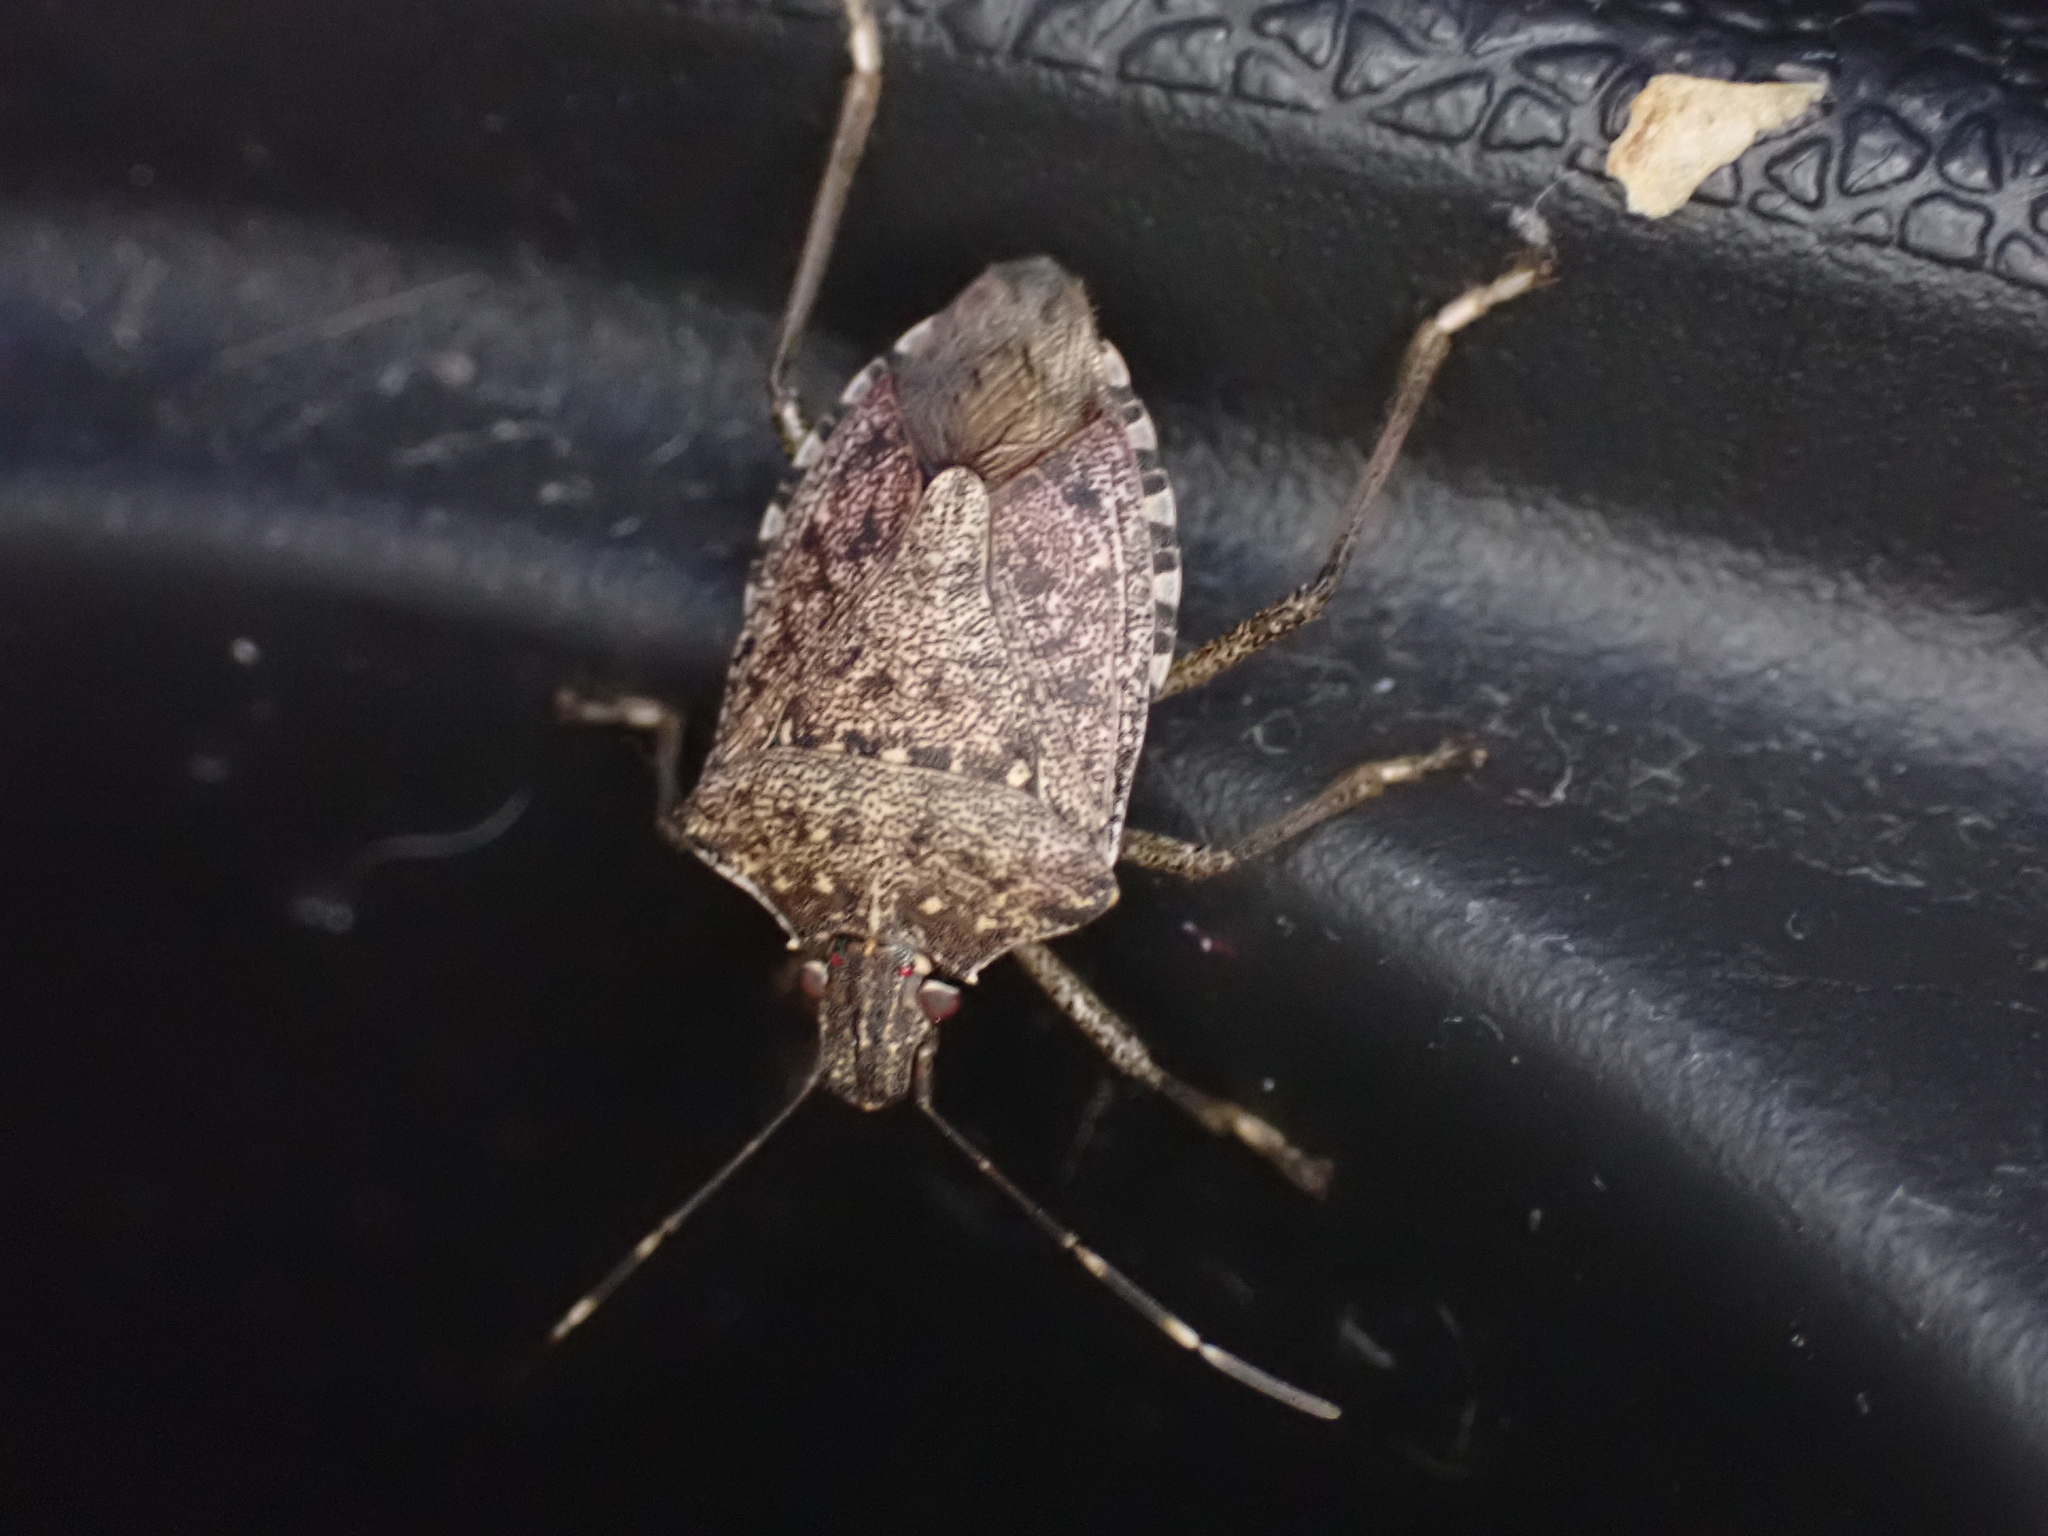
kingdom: Animalia
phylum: Arthropoda
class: Insecta
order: Hemiptera
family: Pentatomidae
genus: Halyomorpha
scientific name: Halyomorpha halys
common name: Brown marmorated stink bug
